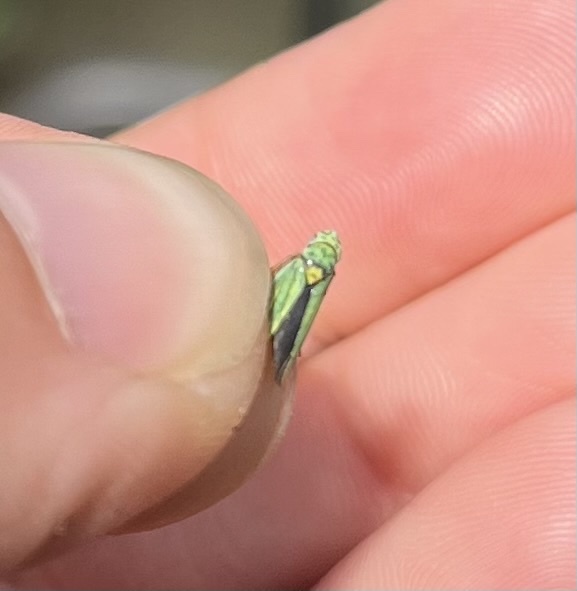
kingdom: Animalia
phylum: Arthropoda
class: Insecta
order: Hemiptera
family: Cicadellidae
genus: Graphocephala
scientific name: Graphocephala atropunctata
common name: Blue-green sharpshooter
